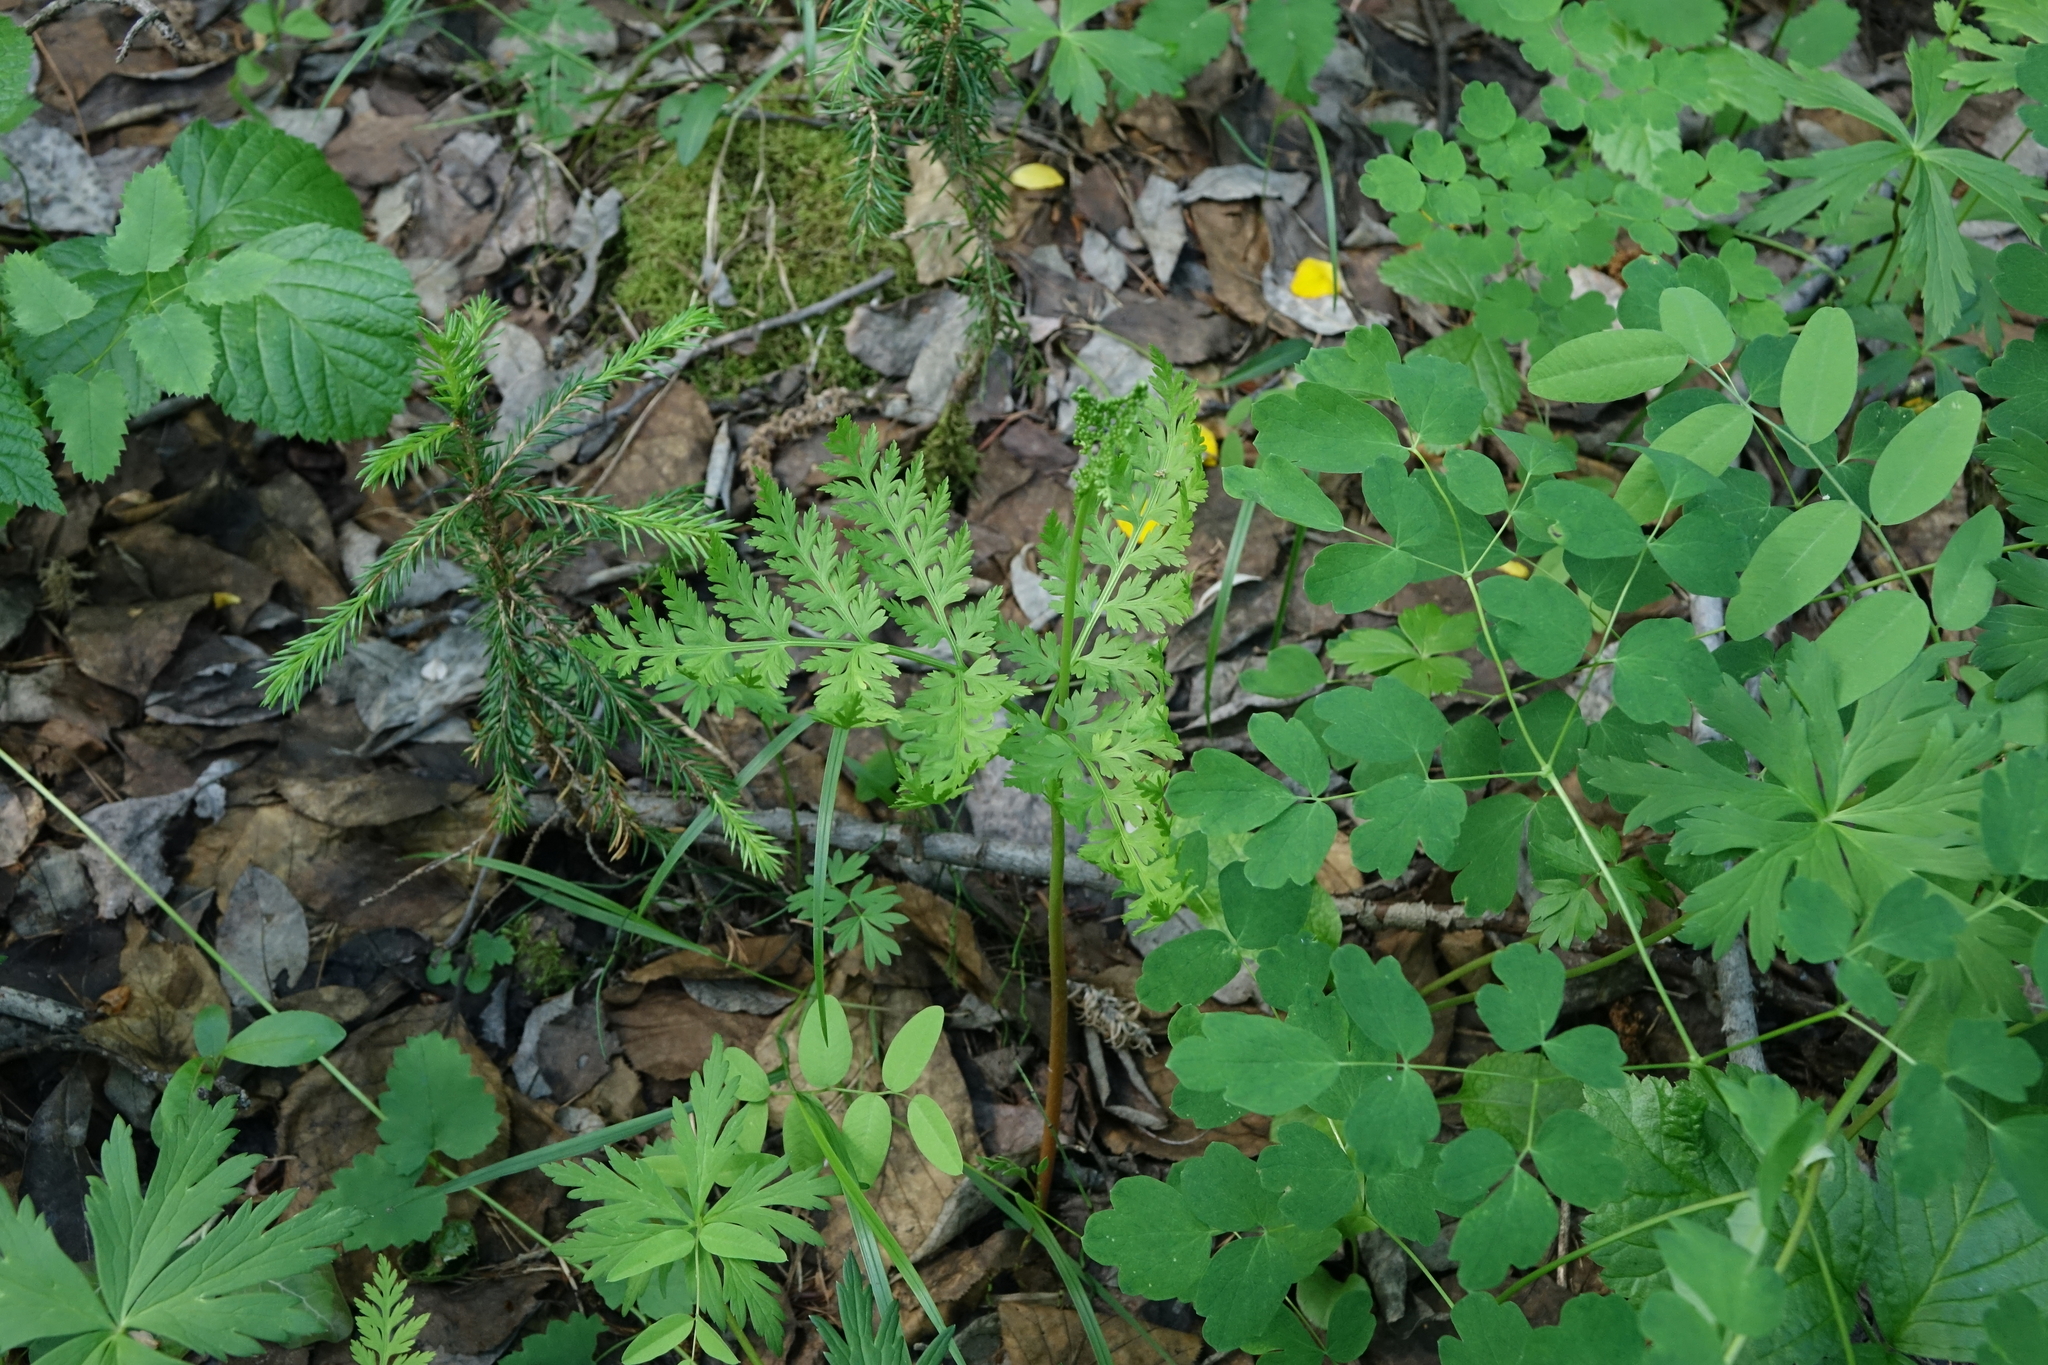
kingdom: Plantae
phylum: Tracheophyta
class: Polypodiopsida
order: Ophioglossales
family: Ophioglossaceae
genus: Botrypus
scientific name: Botrypus virginianus
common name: Common grapefern
